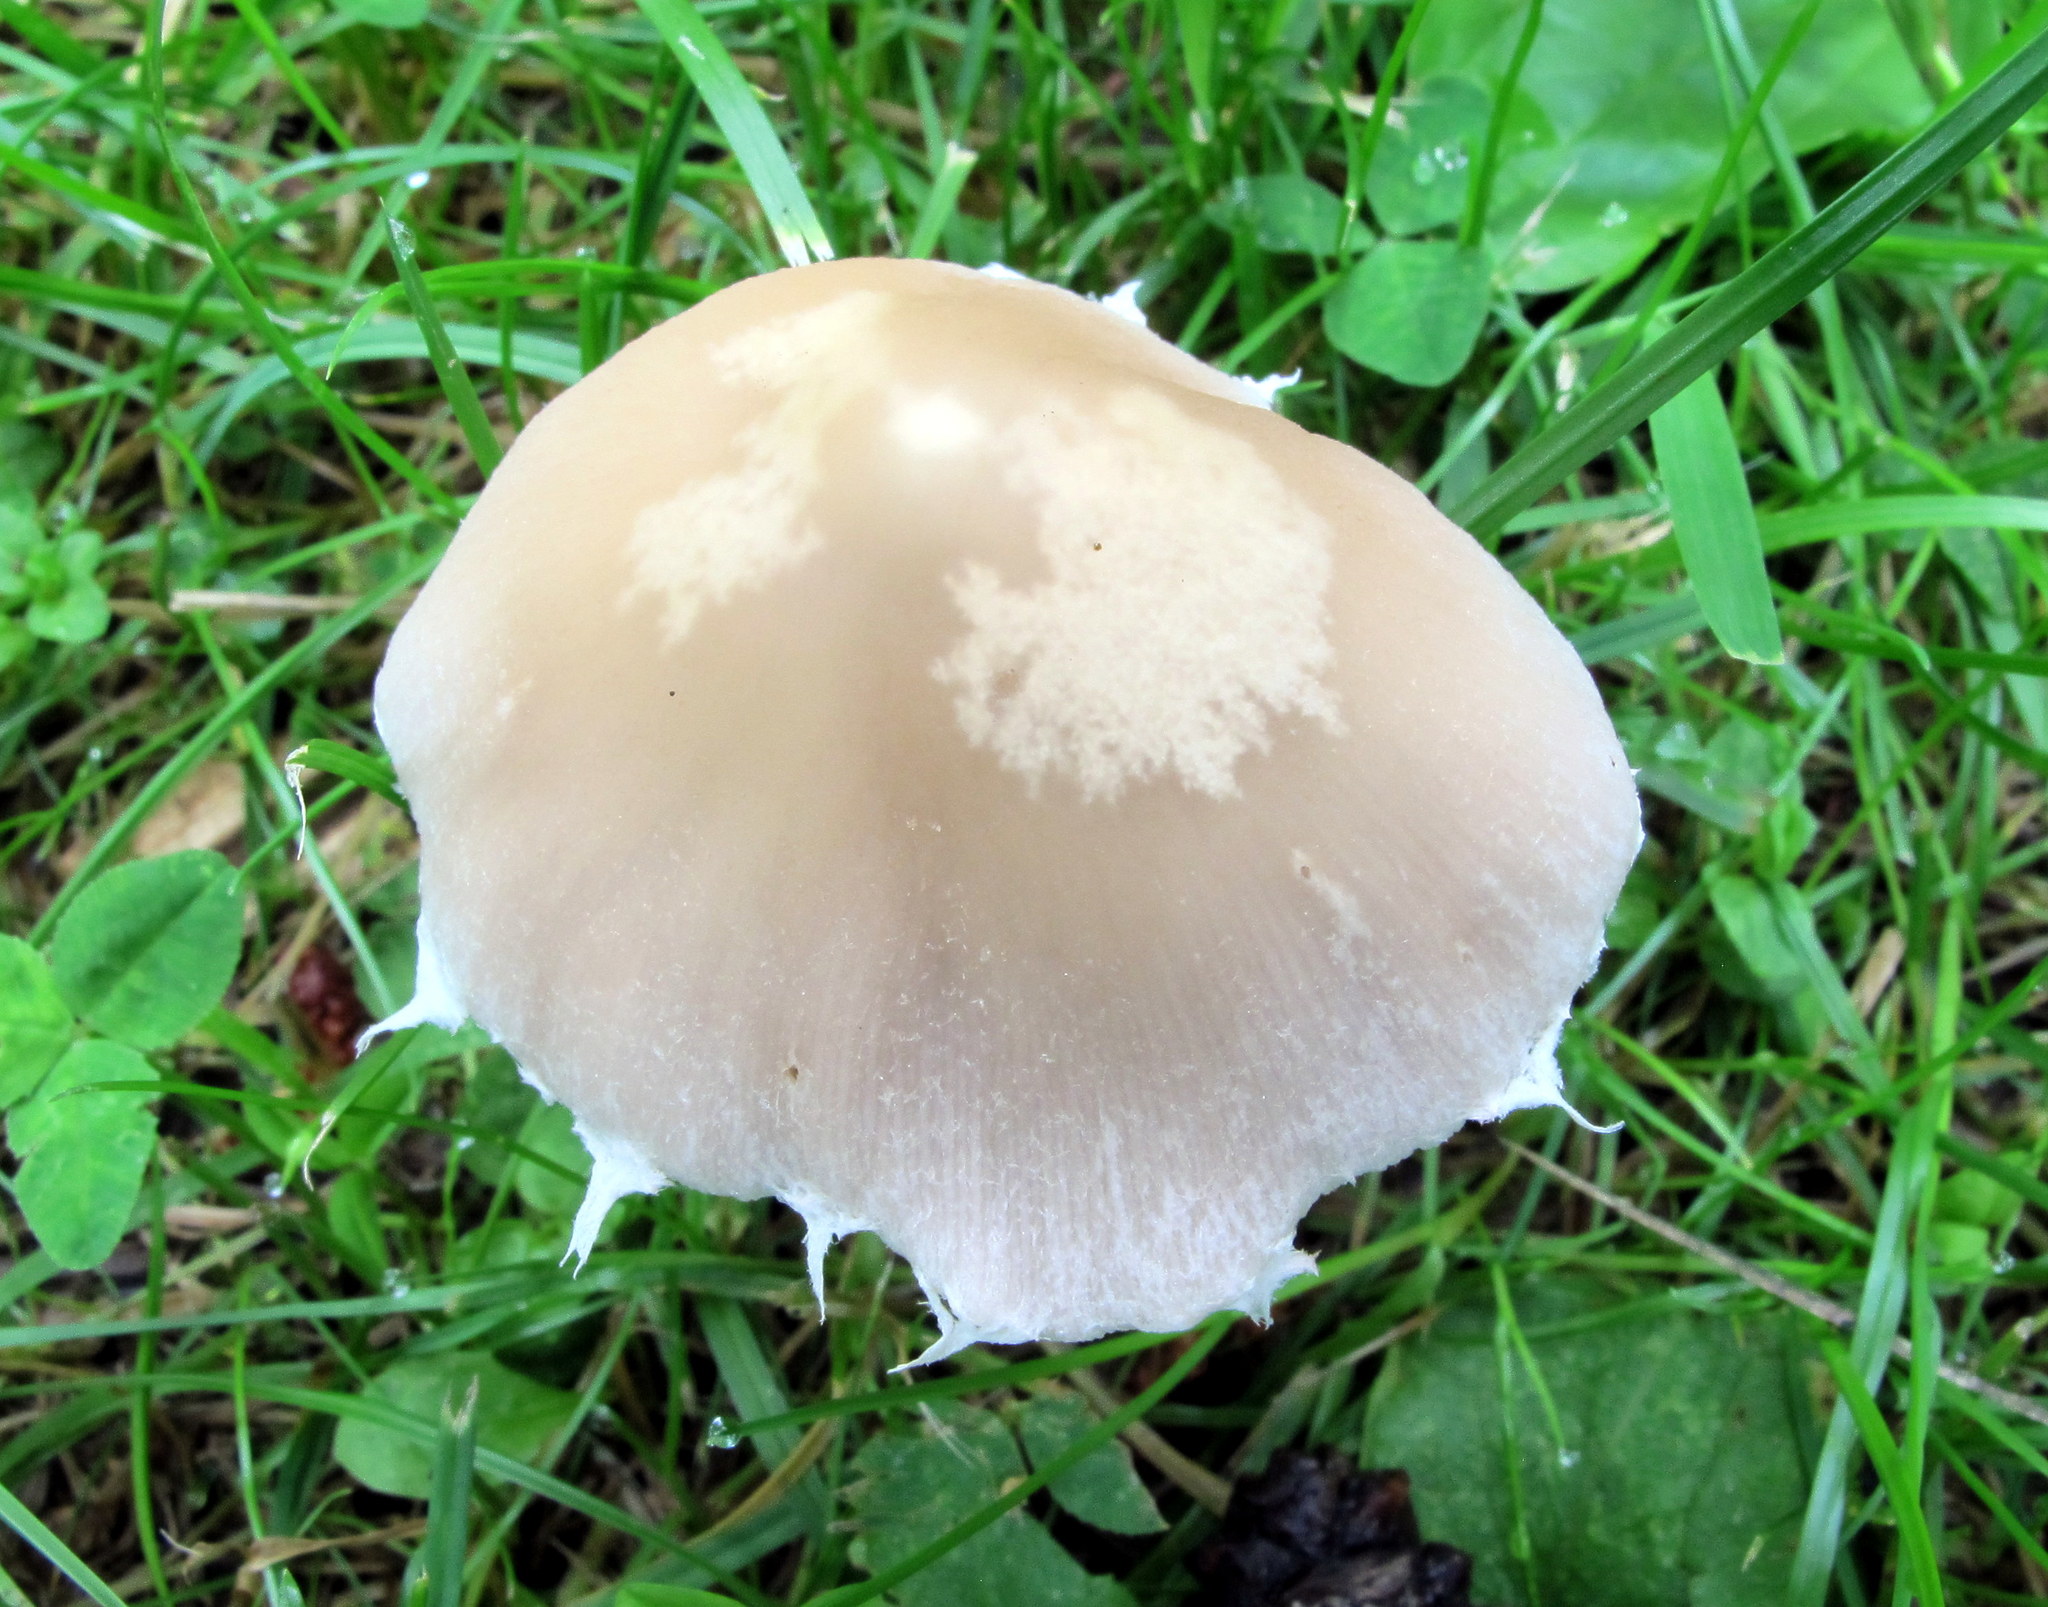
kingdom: Fungi
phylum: Basidiomycota
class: Agaricomycetes
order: Agaricales
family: Psathyrellaceae
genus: Candolleomyces
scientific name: Candolleomyces candolleanus
